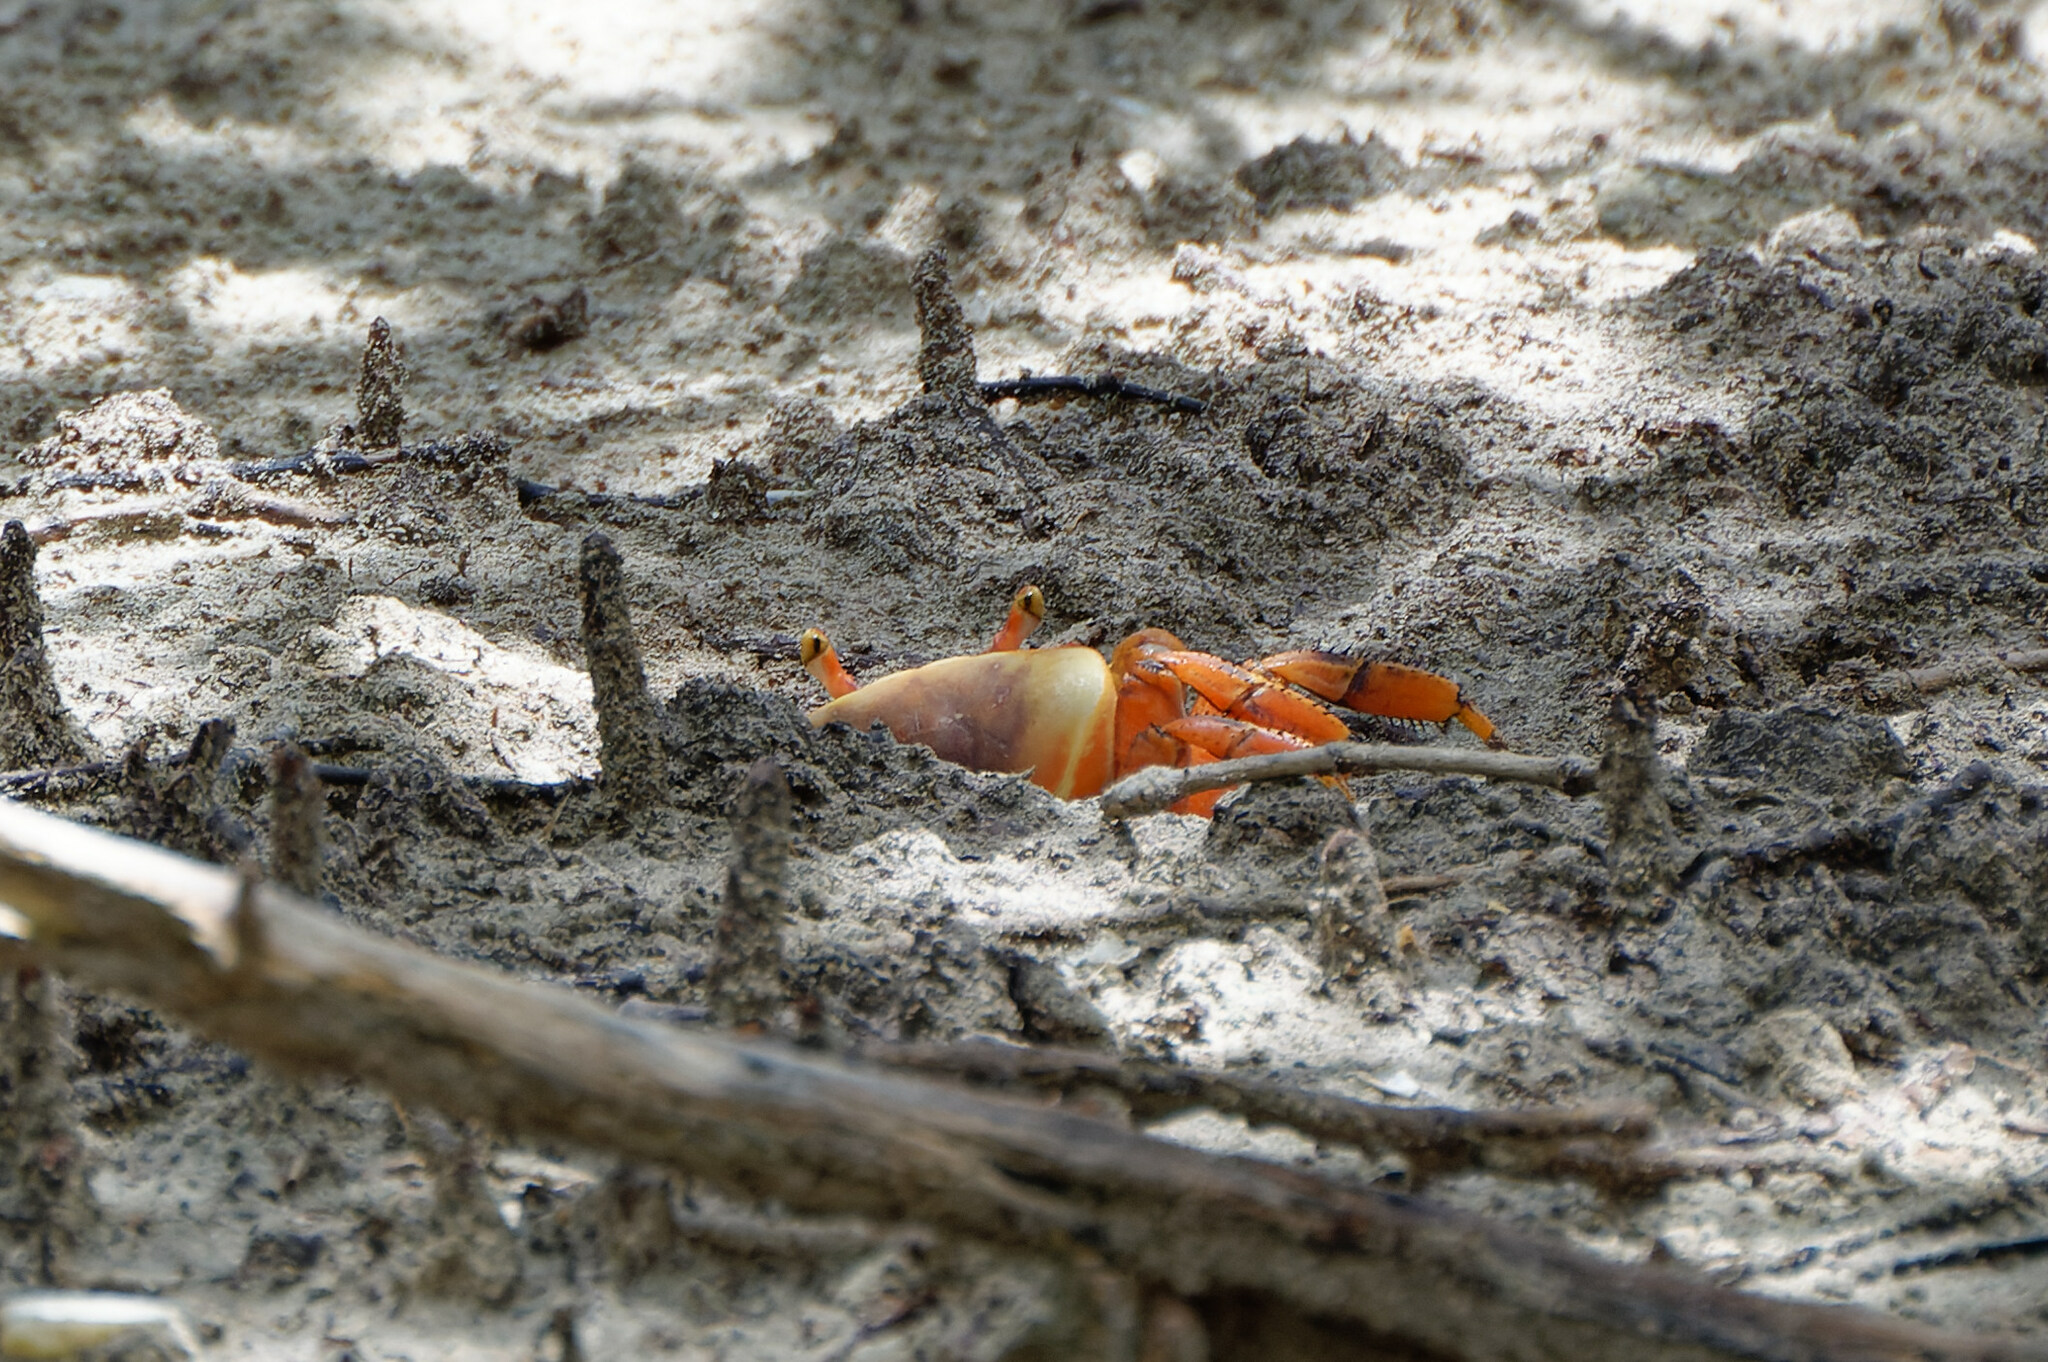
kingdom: Animalia
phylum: Arthropoda
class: Malacostraca
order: Decapoda
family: Gecarcinidae
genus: Cardisoma
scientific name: Cardisoma guanhumi
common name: Great land crab
